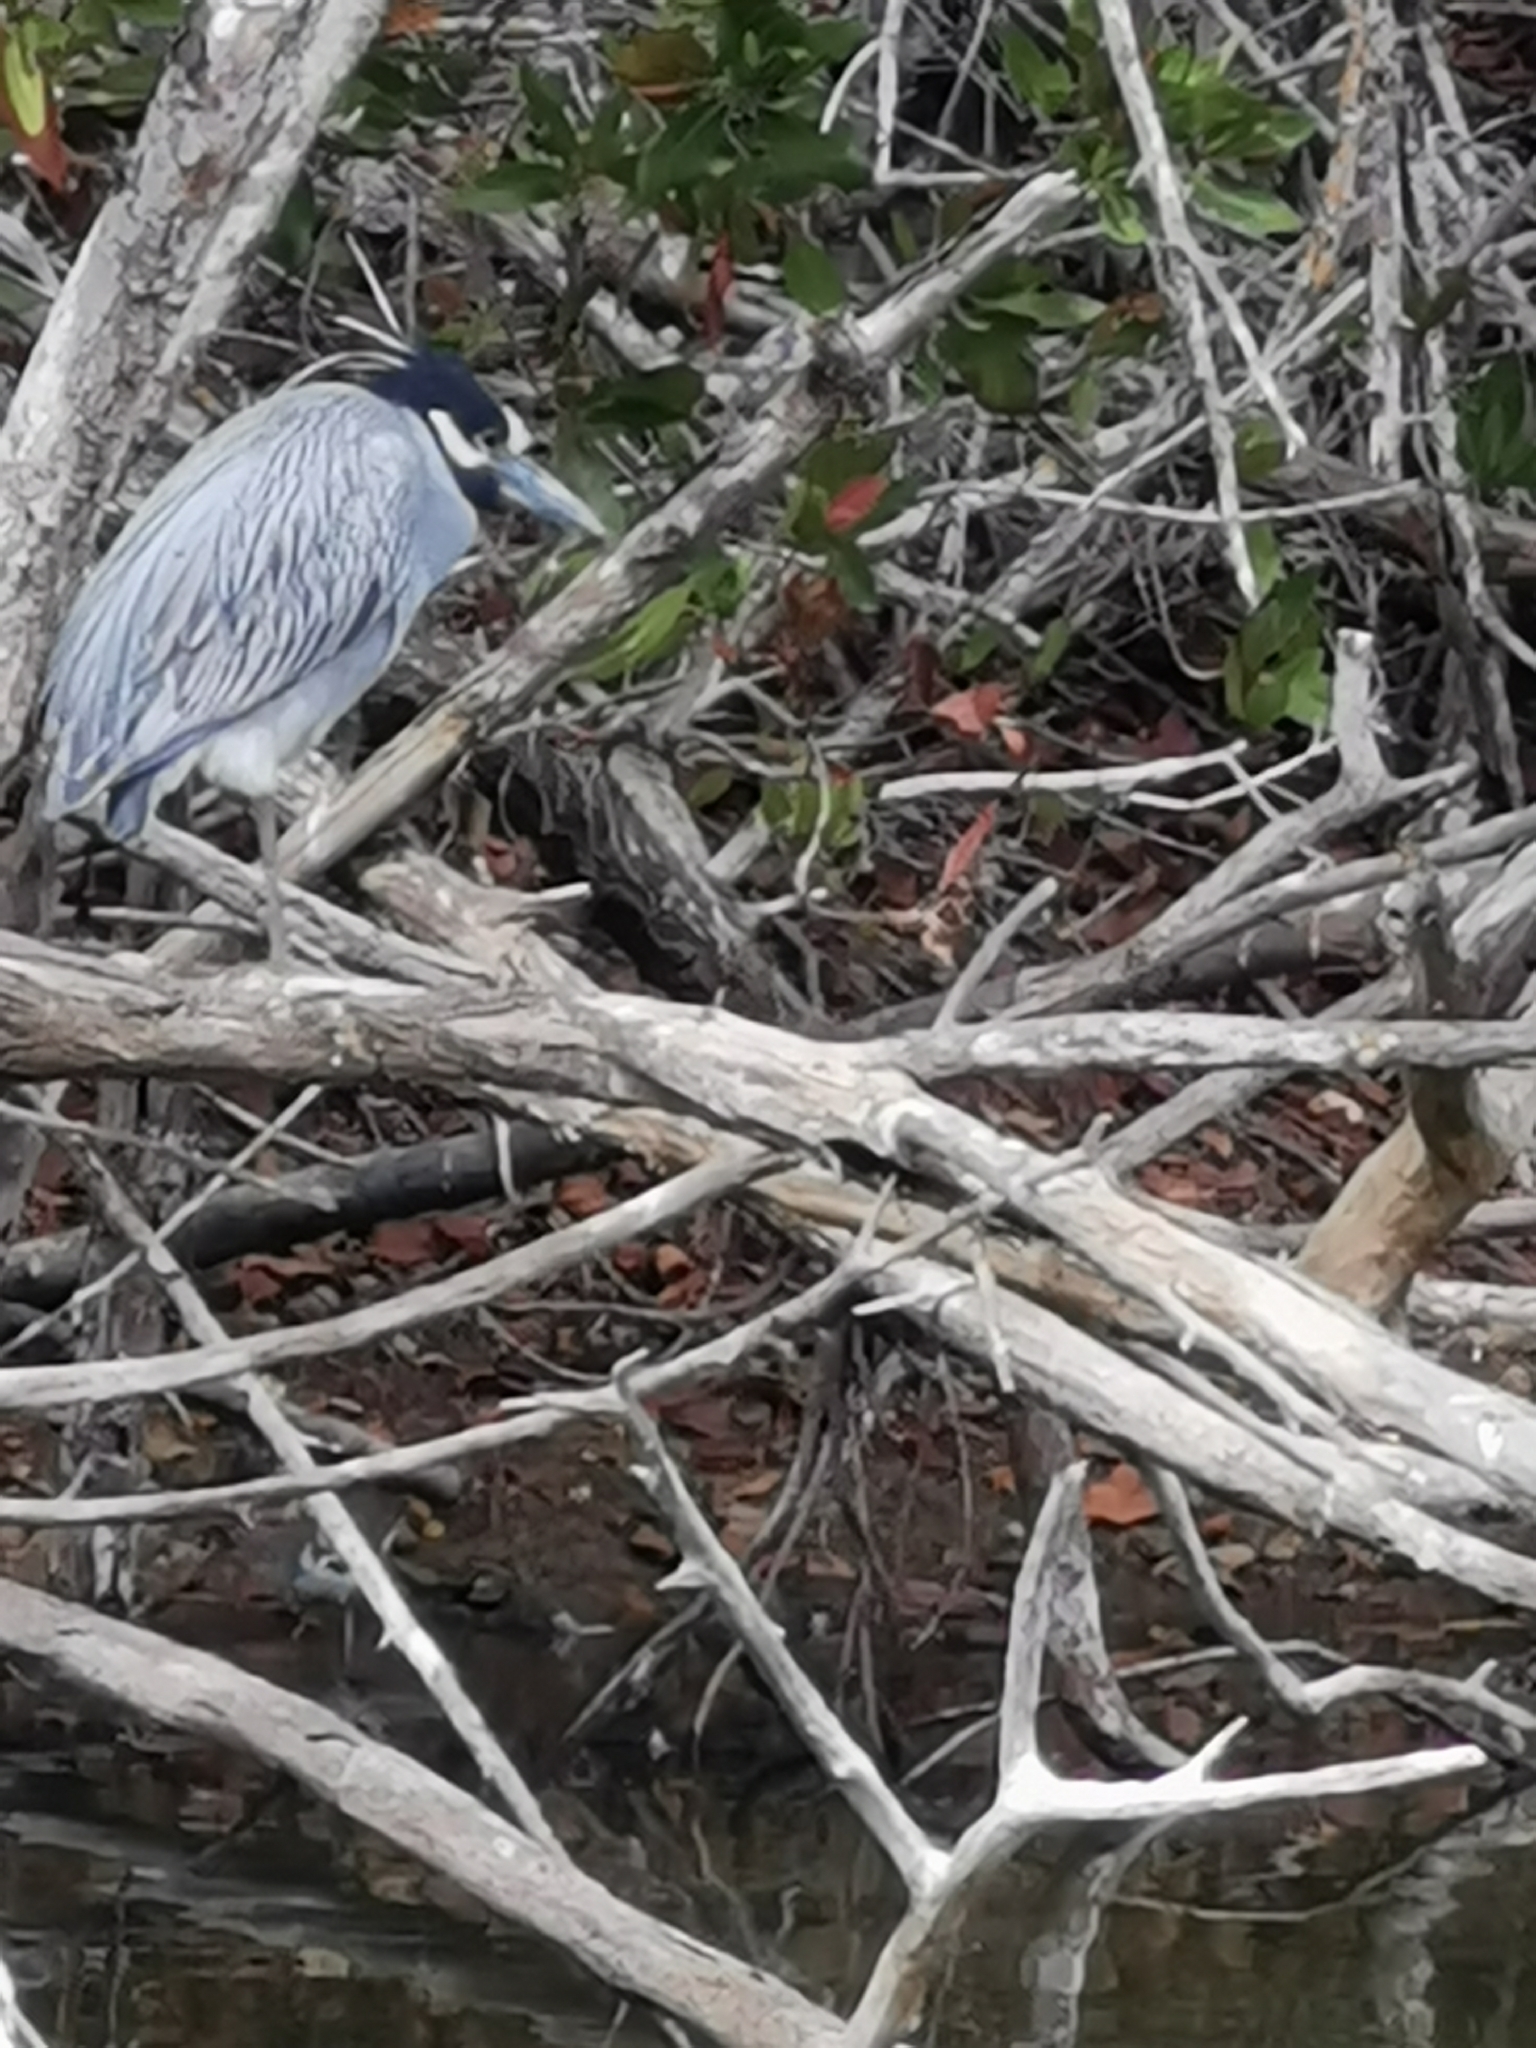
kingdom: Animalia
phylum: Chordata
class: Aves
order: Pelecaniformes
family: Ardeidae
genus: Nyctanassa
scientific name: Nyctanassa violacea
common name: Yellow-crowned night heron
